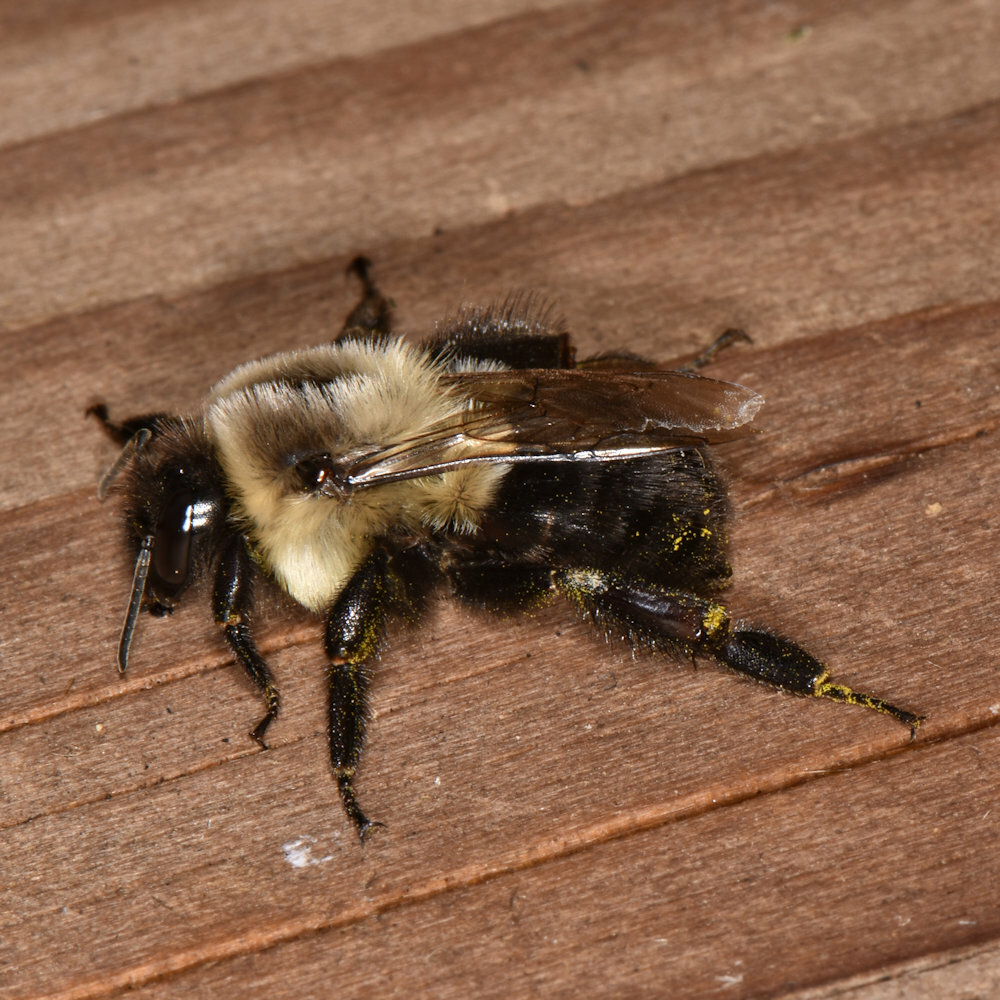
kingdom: Animalia
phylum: Arthropoda
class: Insecta
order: Hymenoptera
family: Apidae
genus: Bombus
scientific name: Bombus impatiens
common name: Common eastern bumble bee
